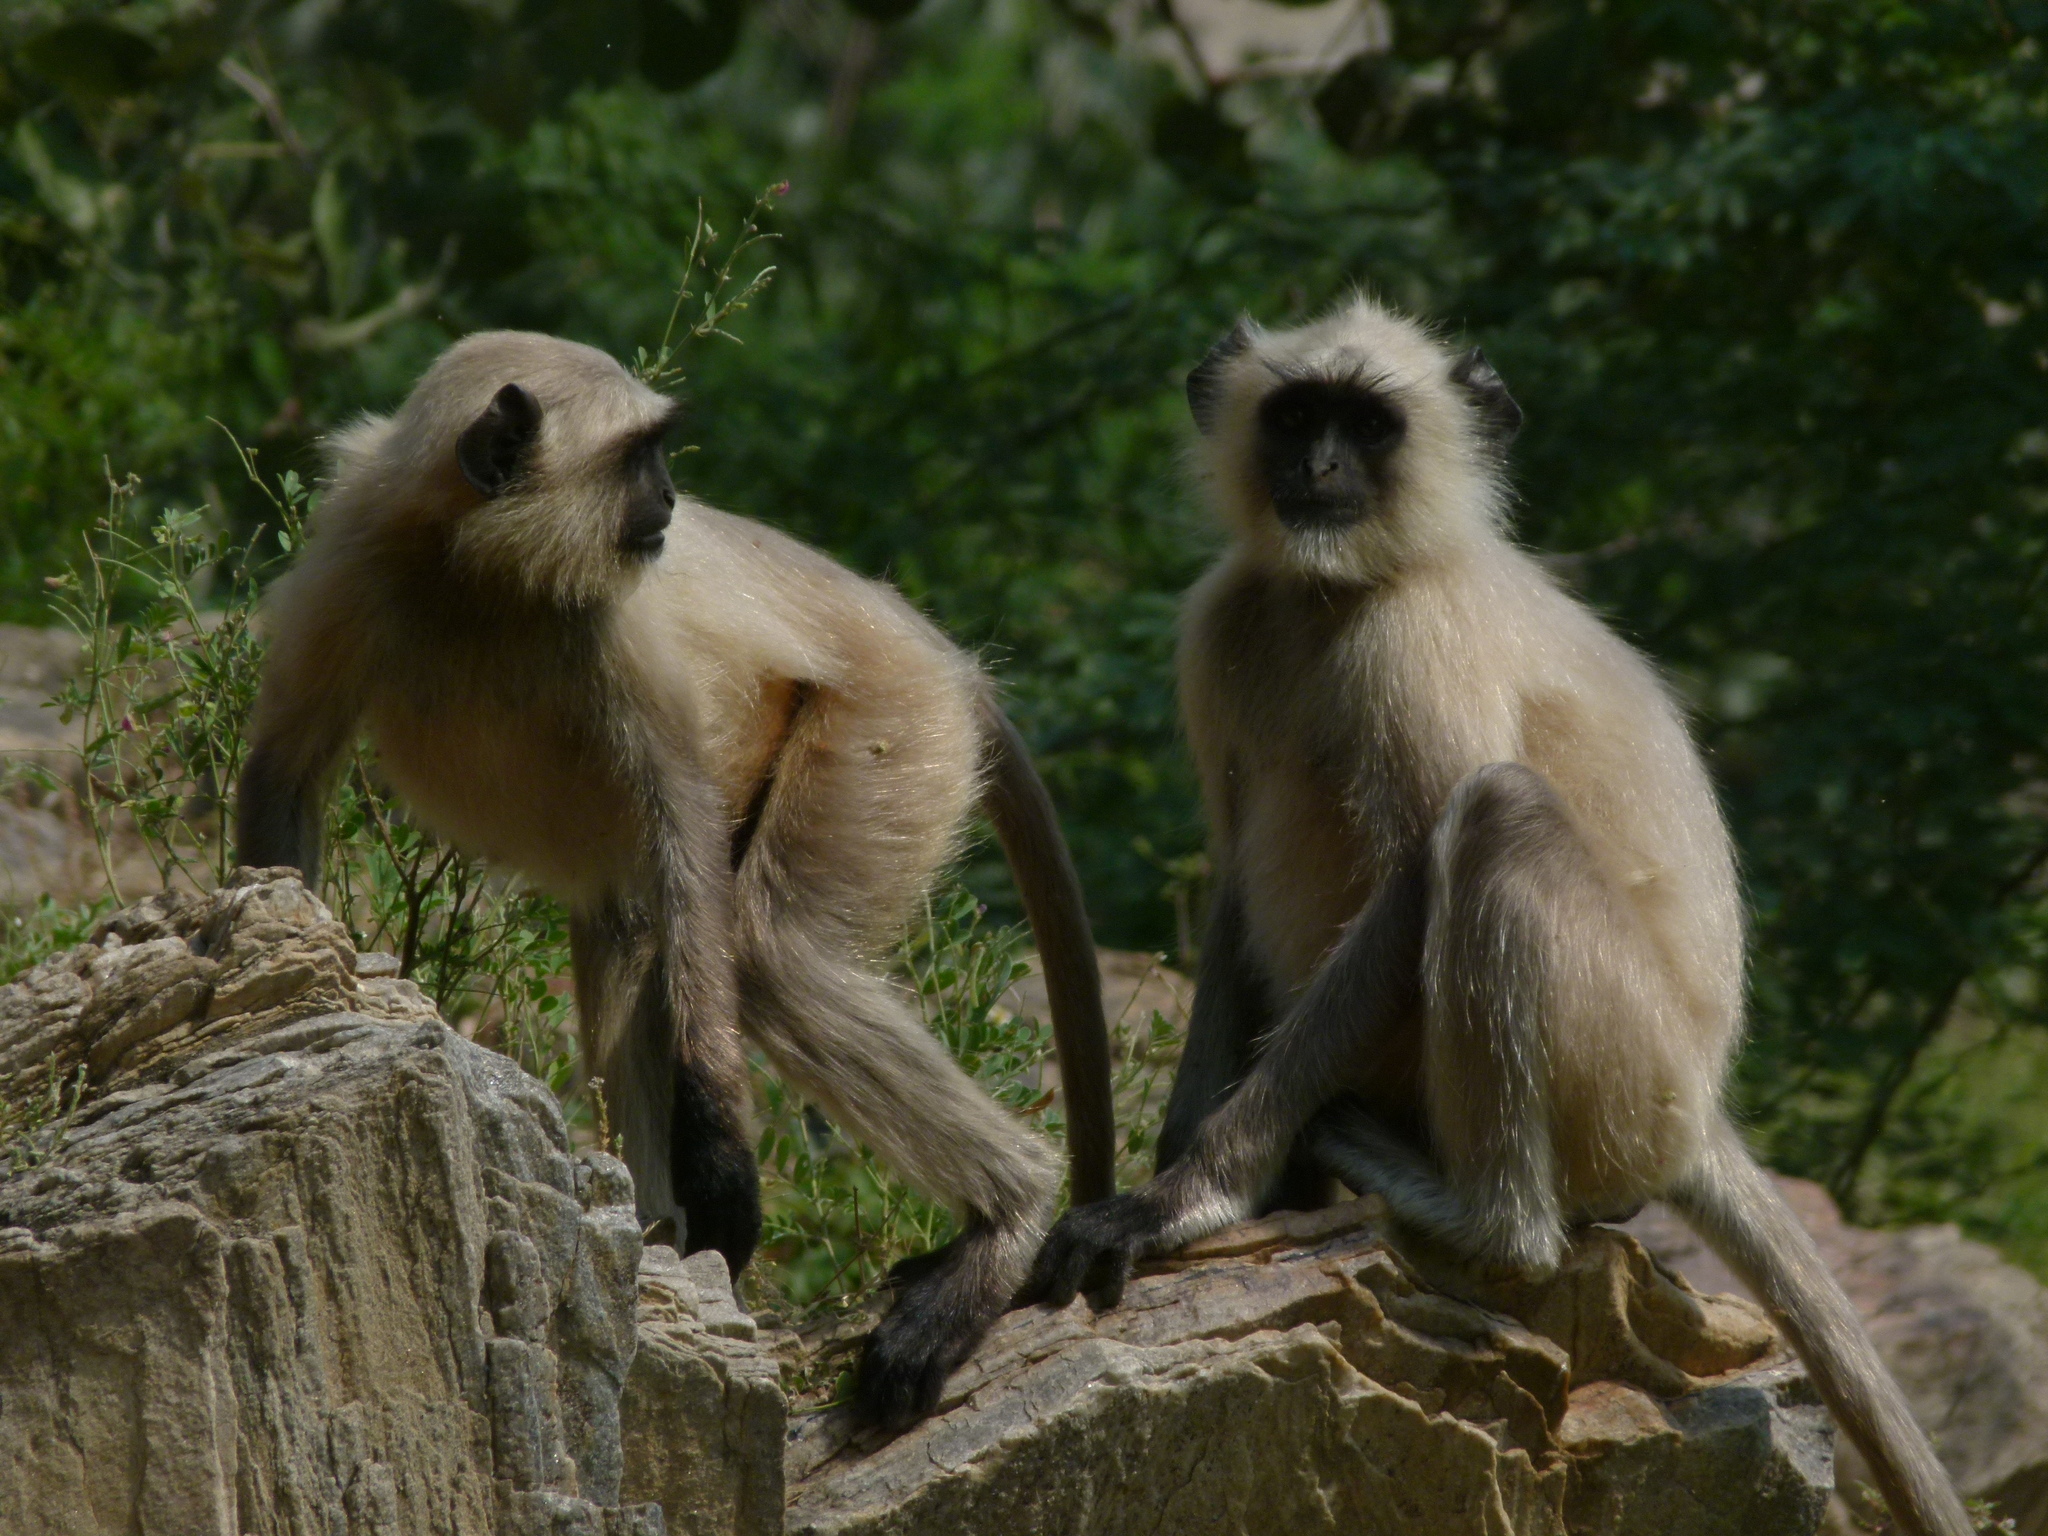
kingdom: Animalia
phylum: Chordata
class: Mammalia
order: Primates
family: Cercopithecidae
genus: Semnopithecus
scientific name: Semnopithecus entellus
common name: Northern plains gray langur
